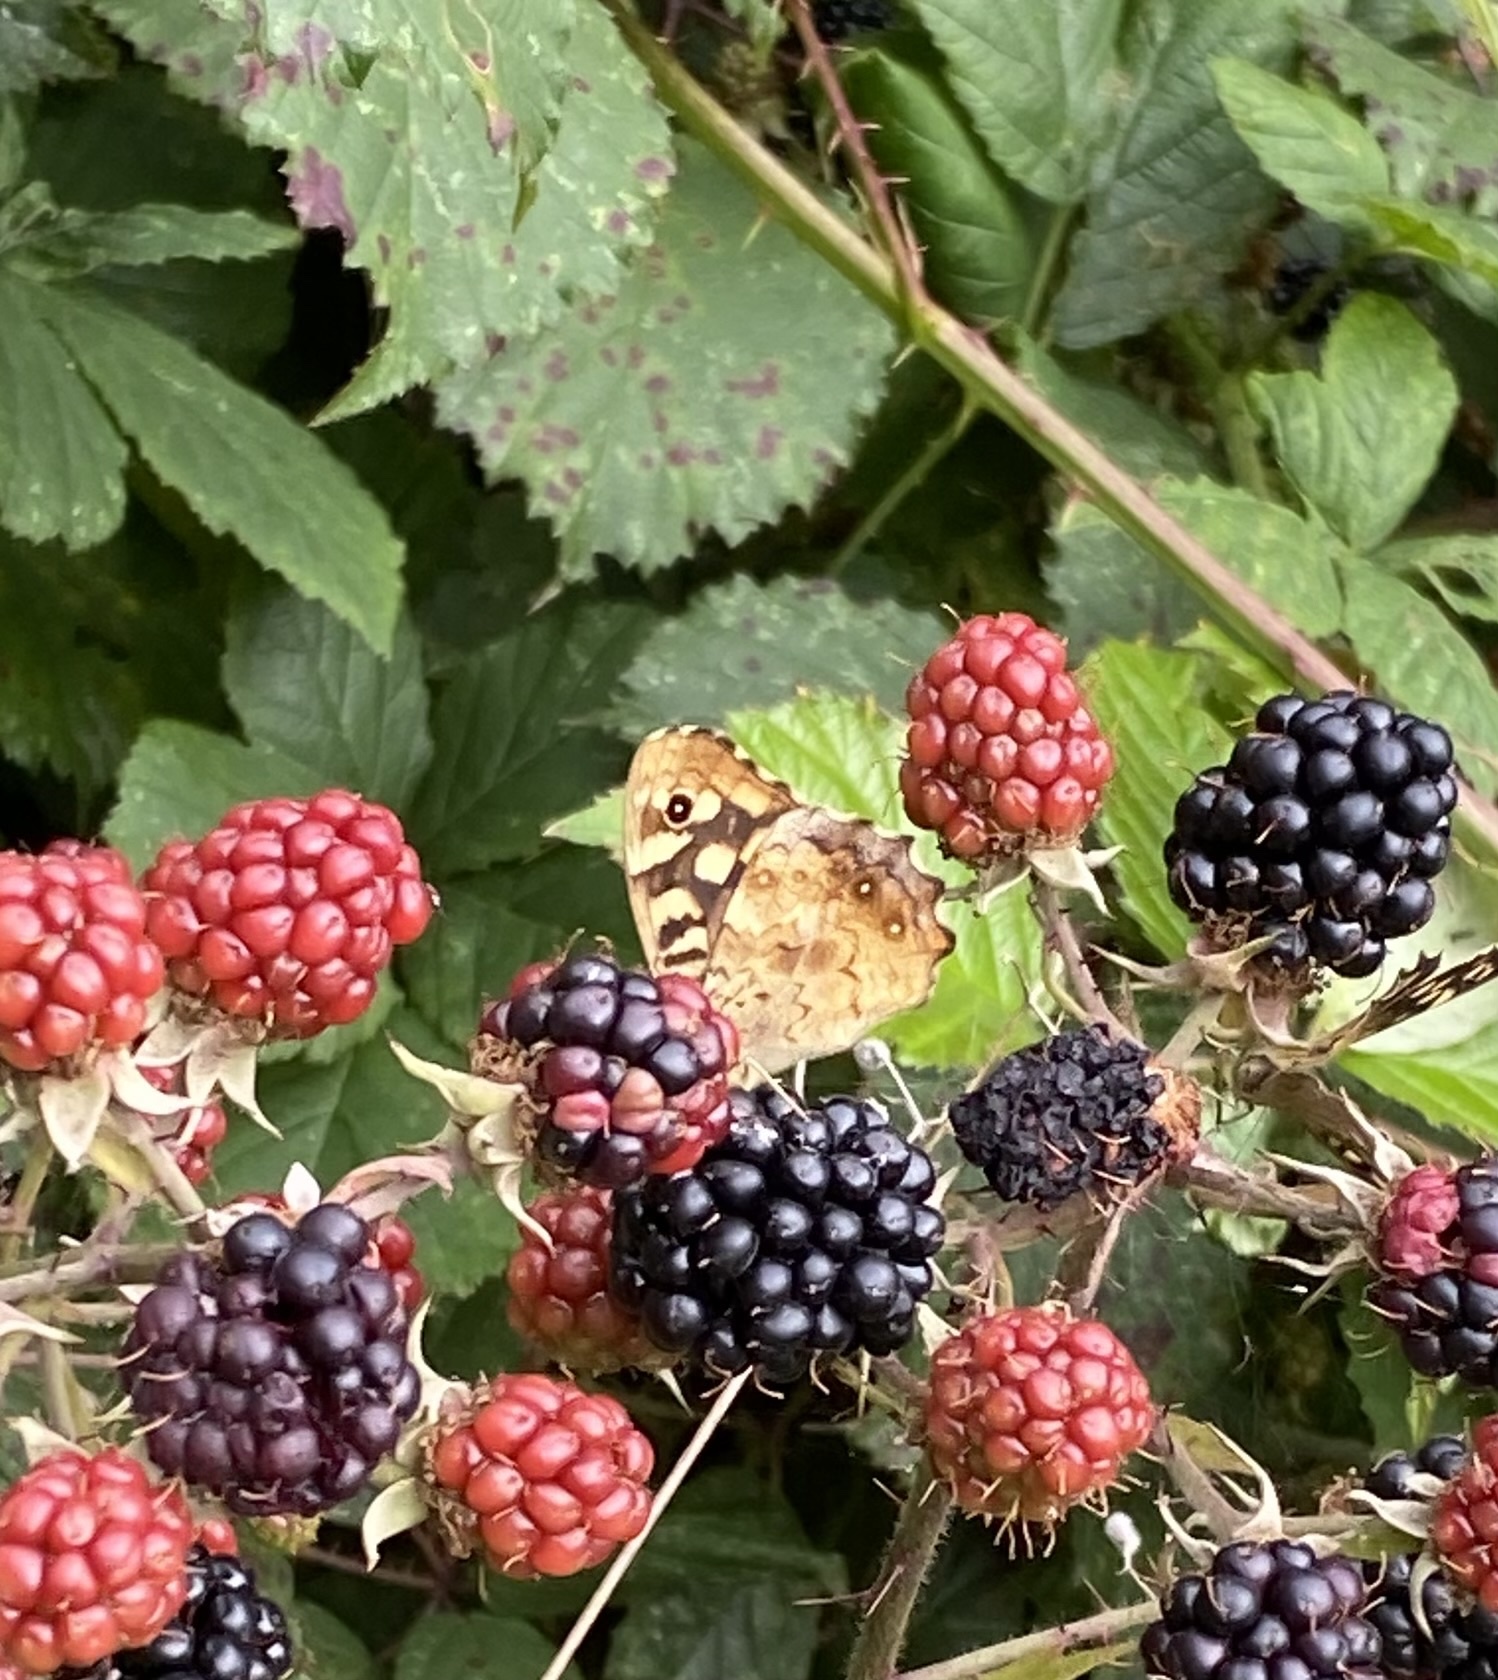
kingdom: Animalia
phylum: Arthropoda
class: Insecta
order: Lepidoptera
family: Nymphalidae
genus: Pararge
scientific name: Pararge aegeria
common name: Speckled wood
